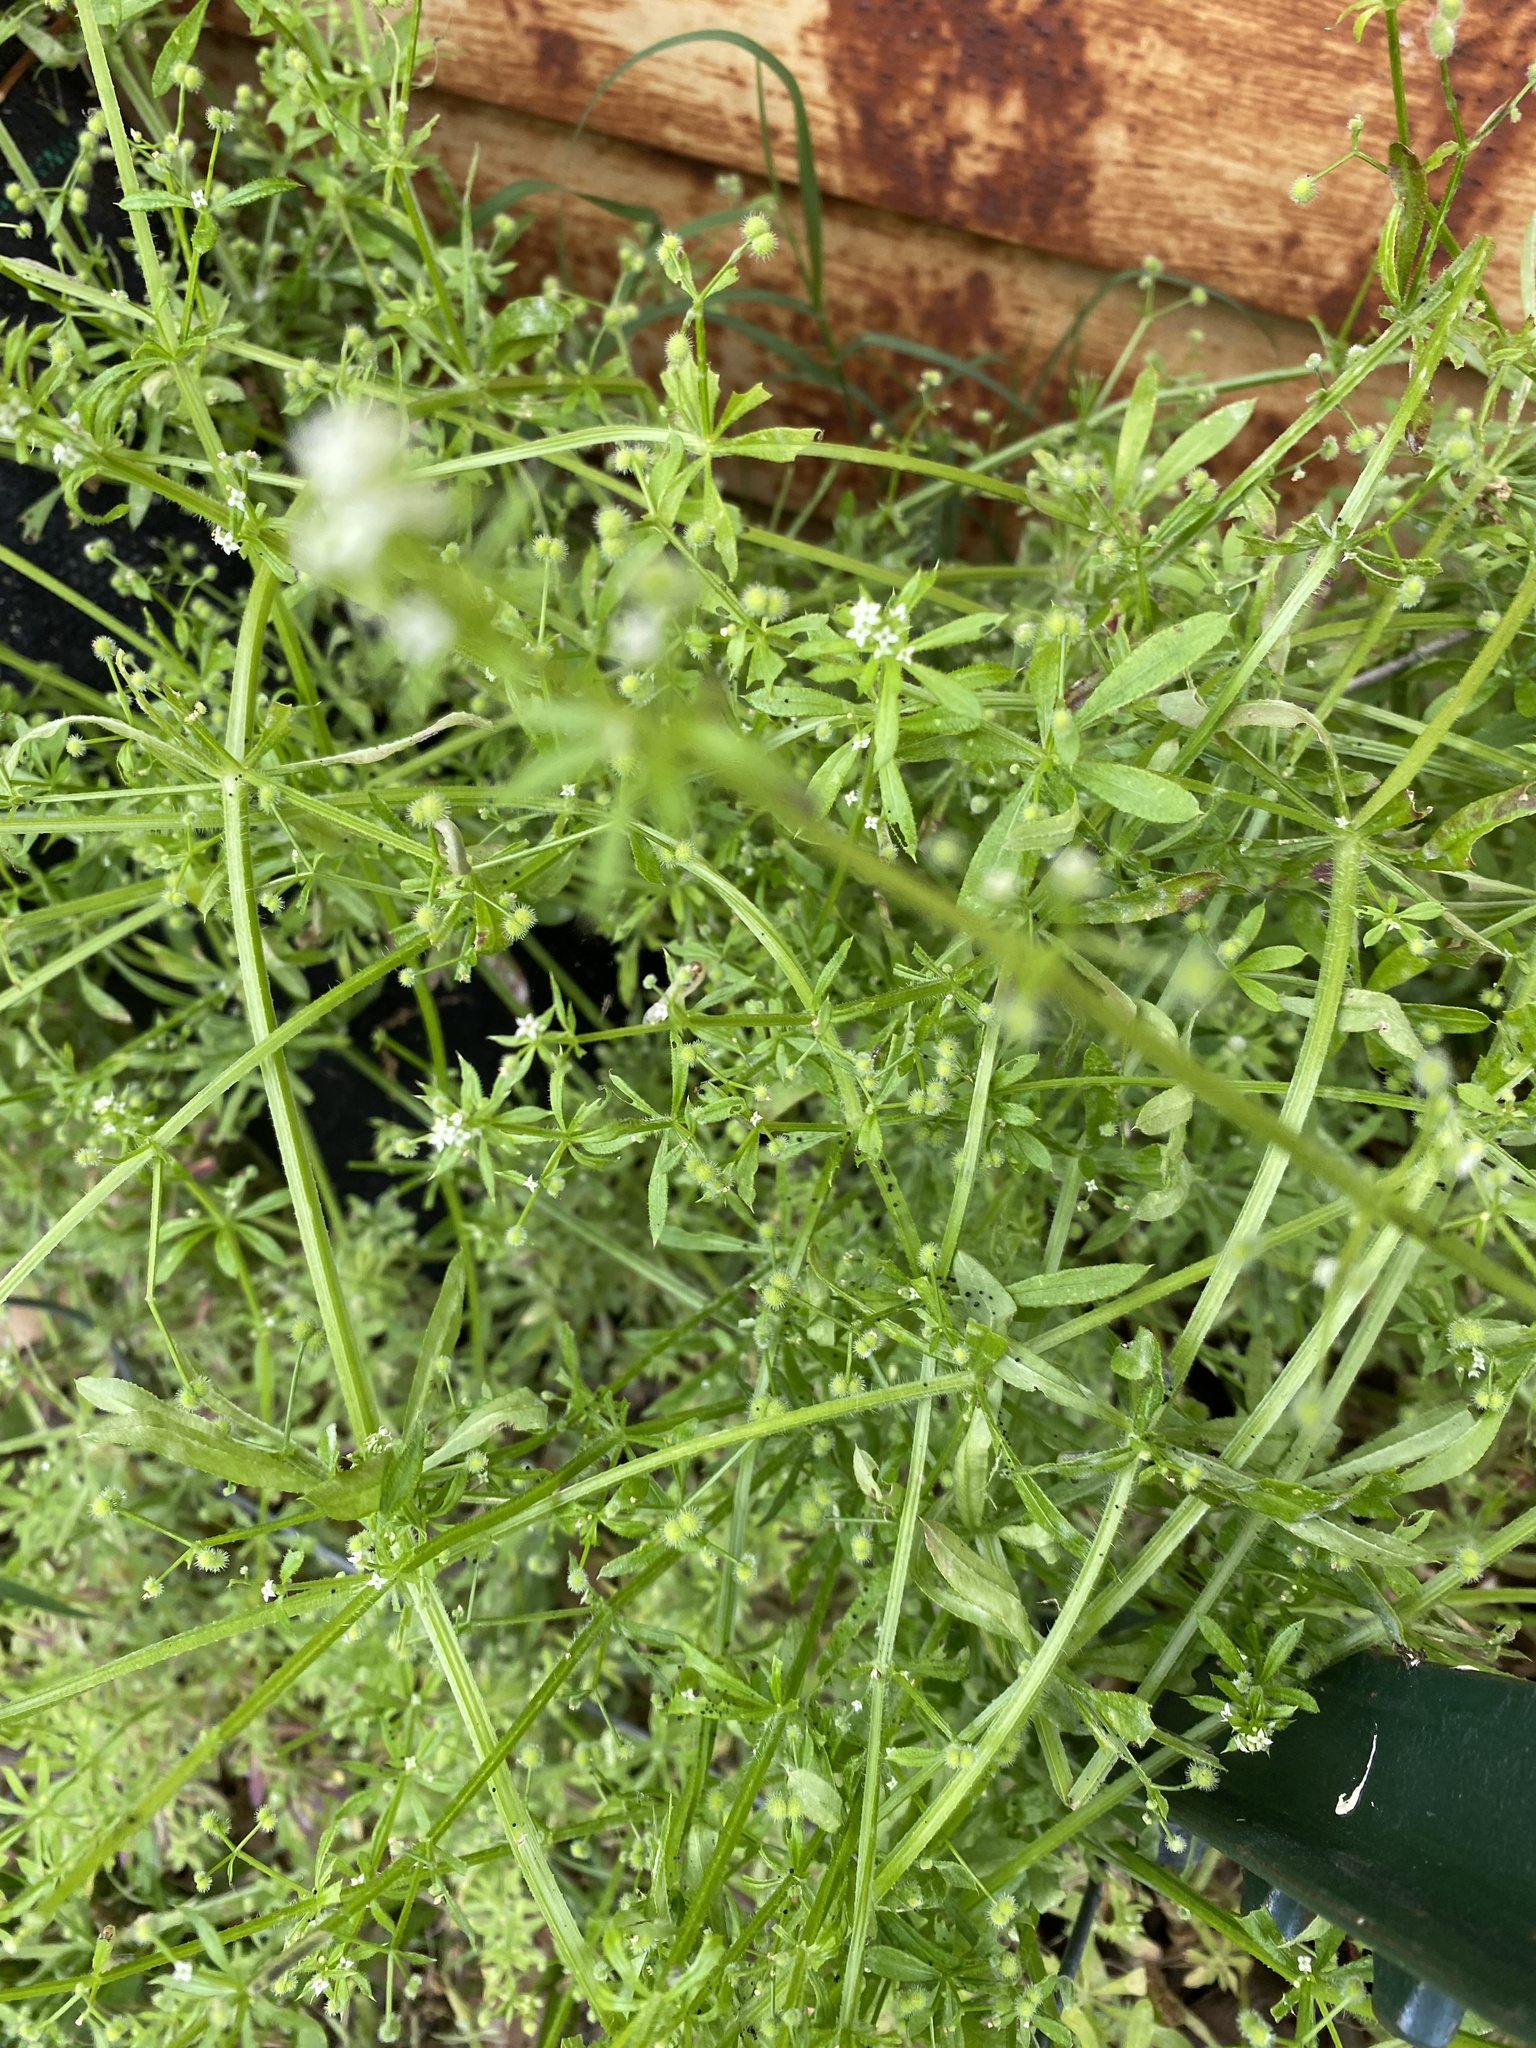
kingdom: Plantae
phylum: Tracheophyta
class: Magnoliopsida
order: Gentianales
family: Rubiaceae
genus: Galium
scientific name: Galium aparine
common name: Cleavers
